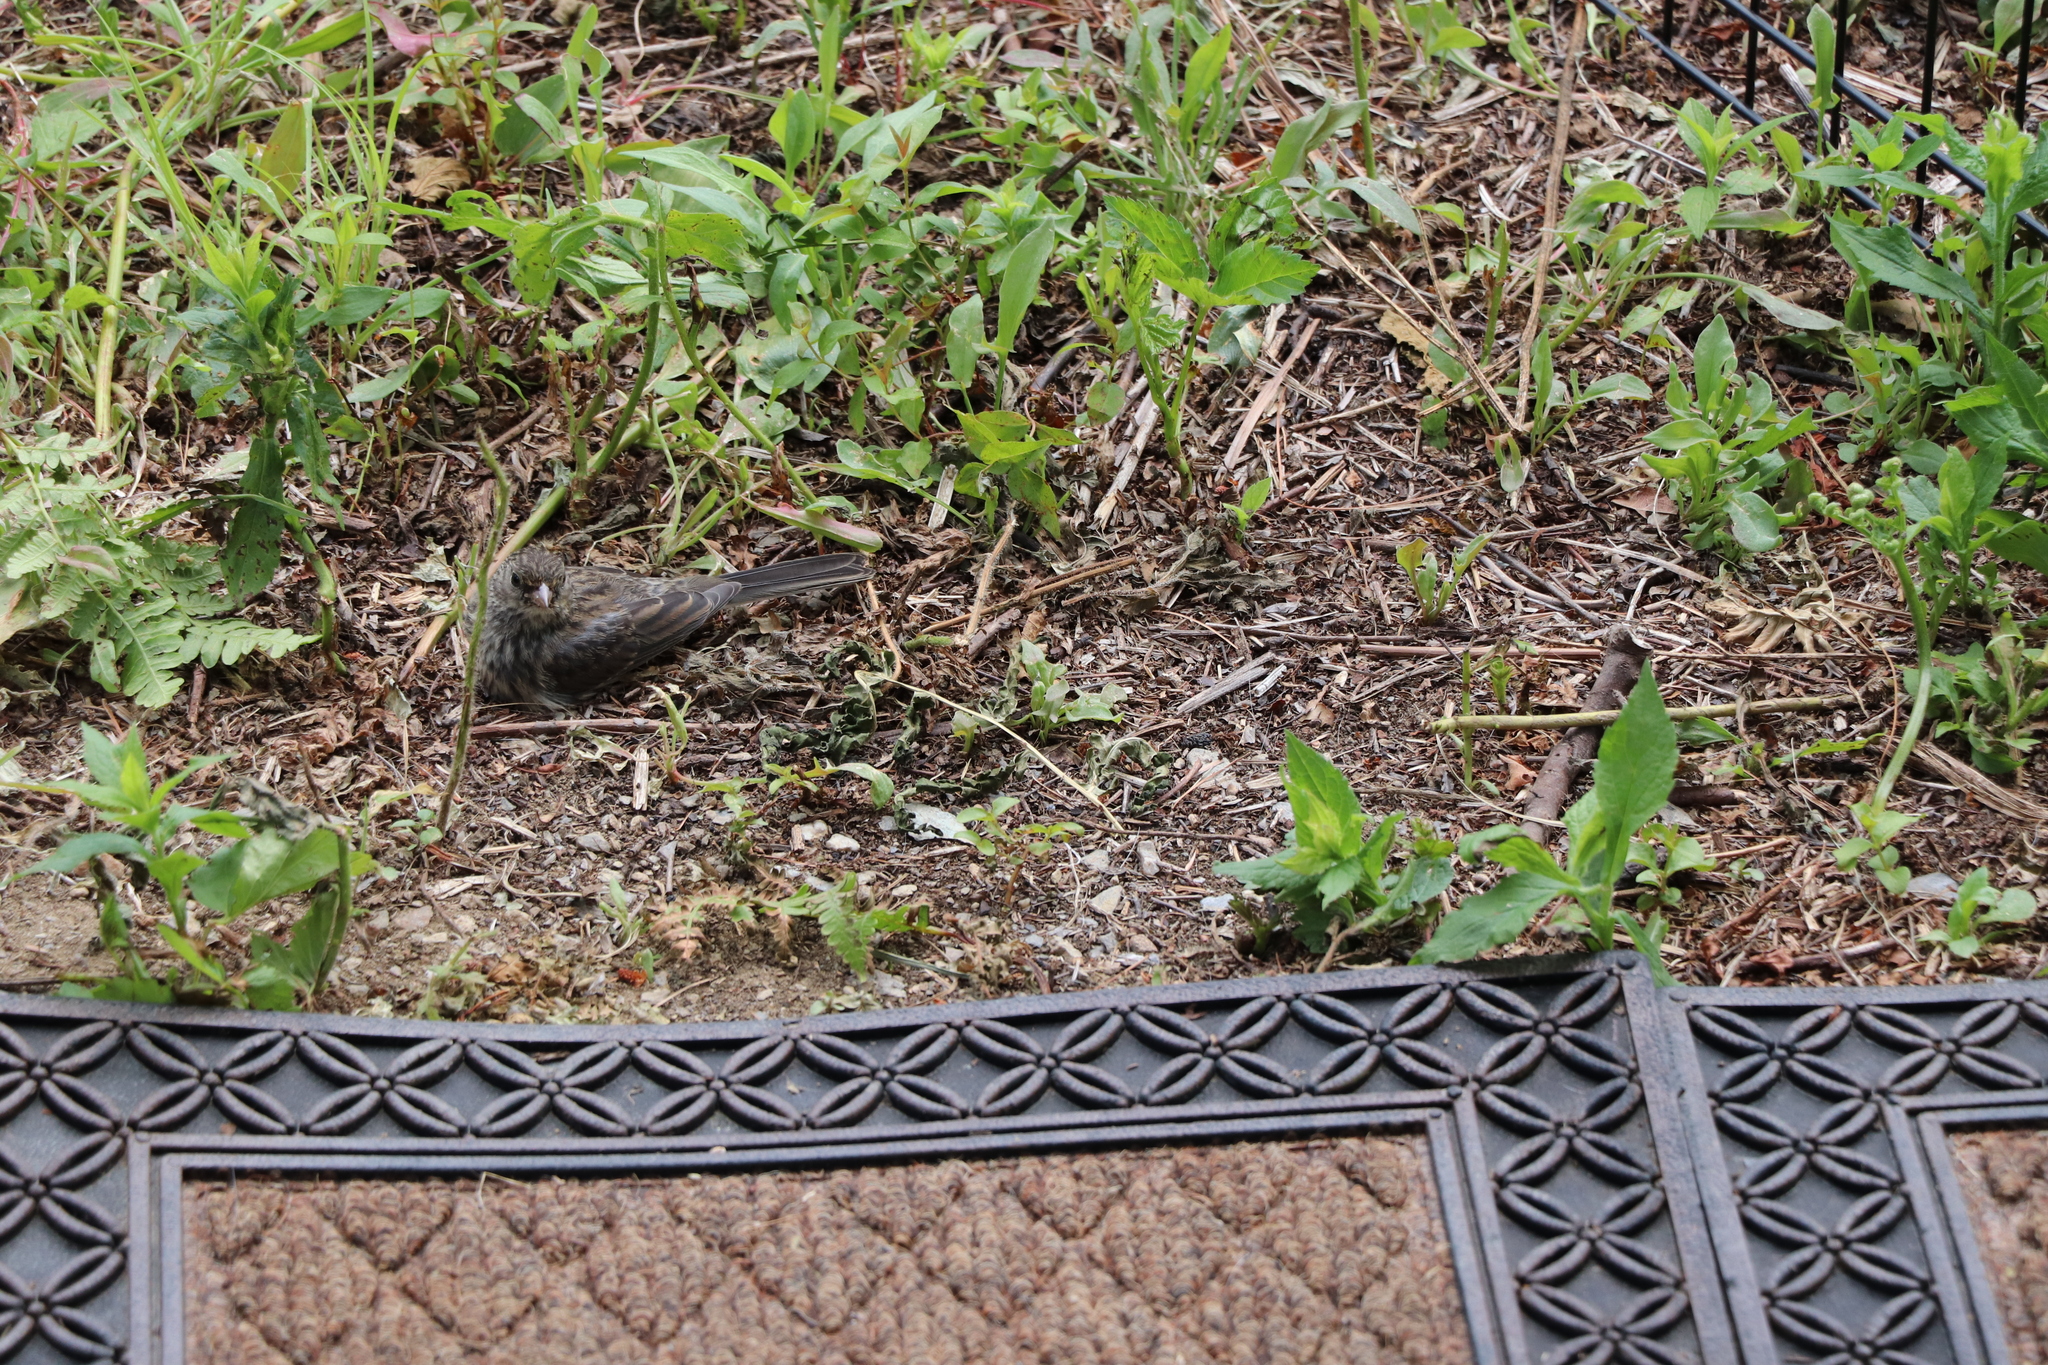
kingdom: Animalia
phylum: Chordata
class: Aves
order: Passeriformes
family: Passerellidae
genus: Junco
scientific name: Junco hyemalis
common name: Dark-eyed junco
